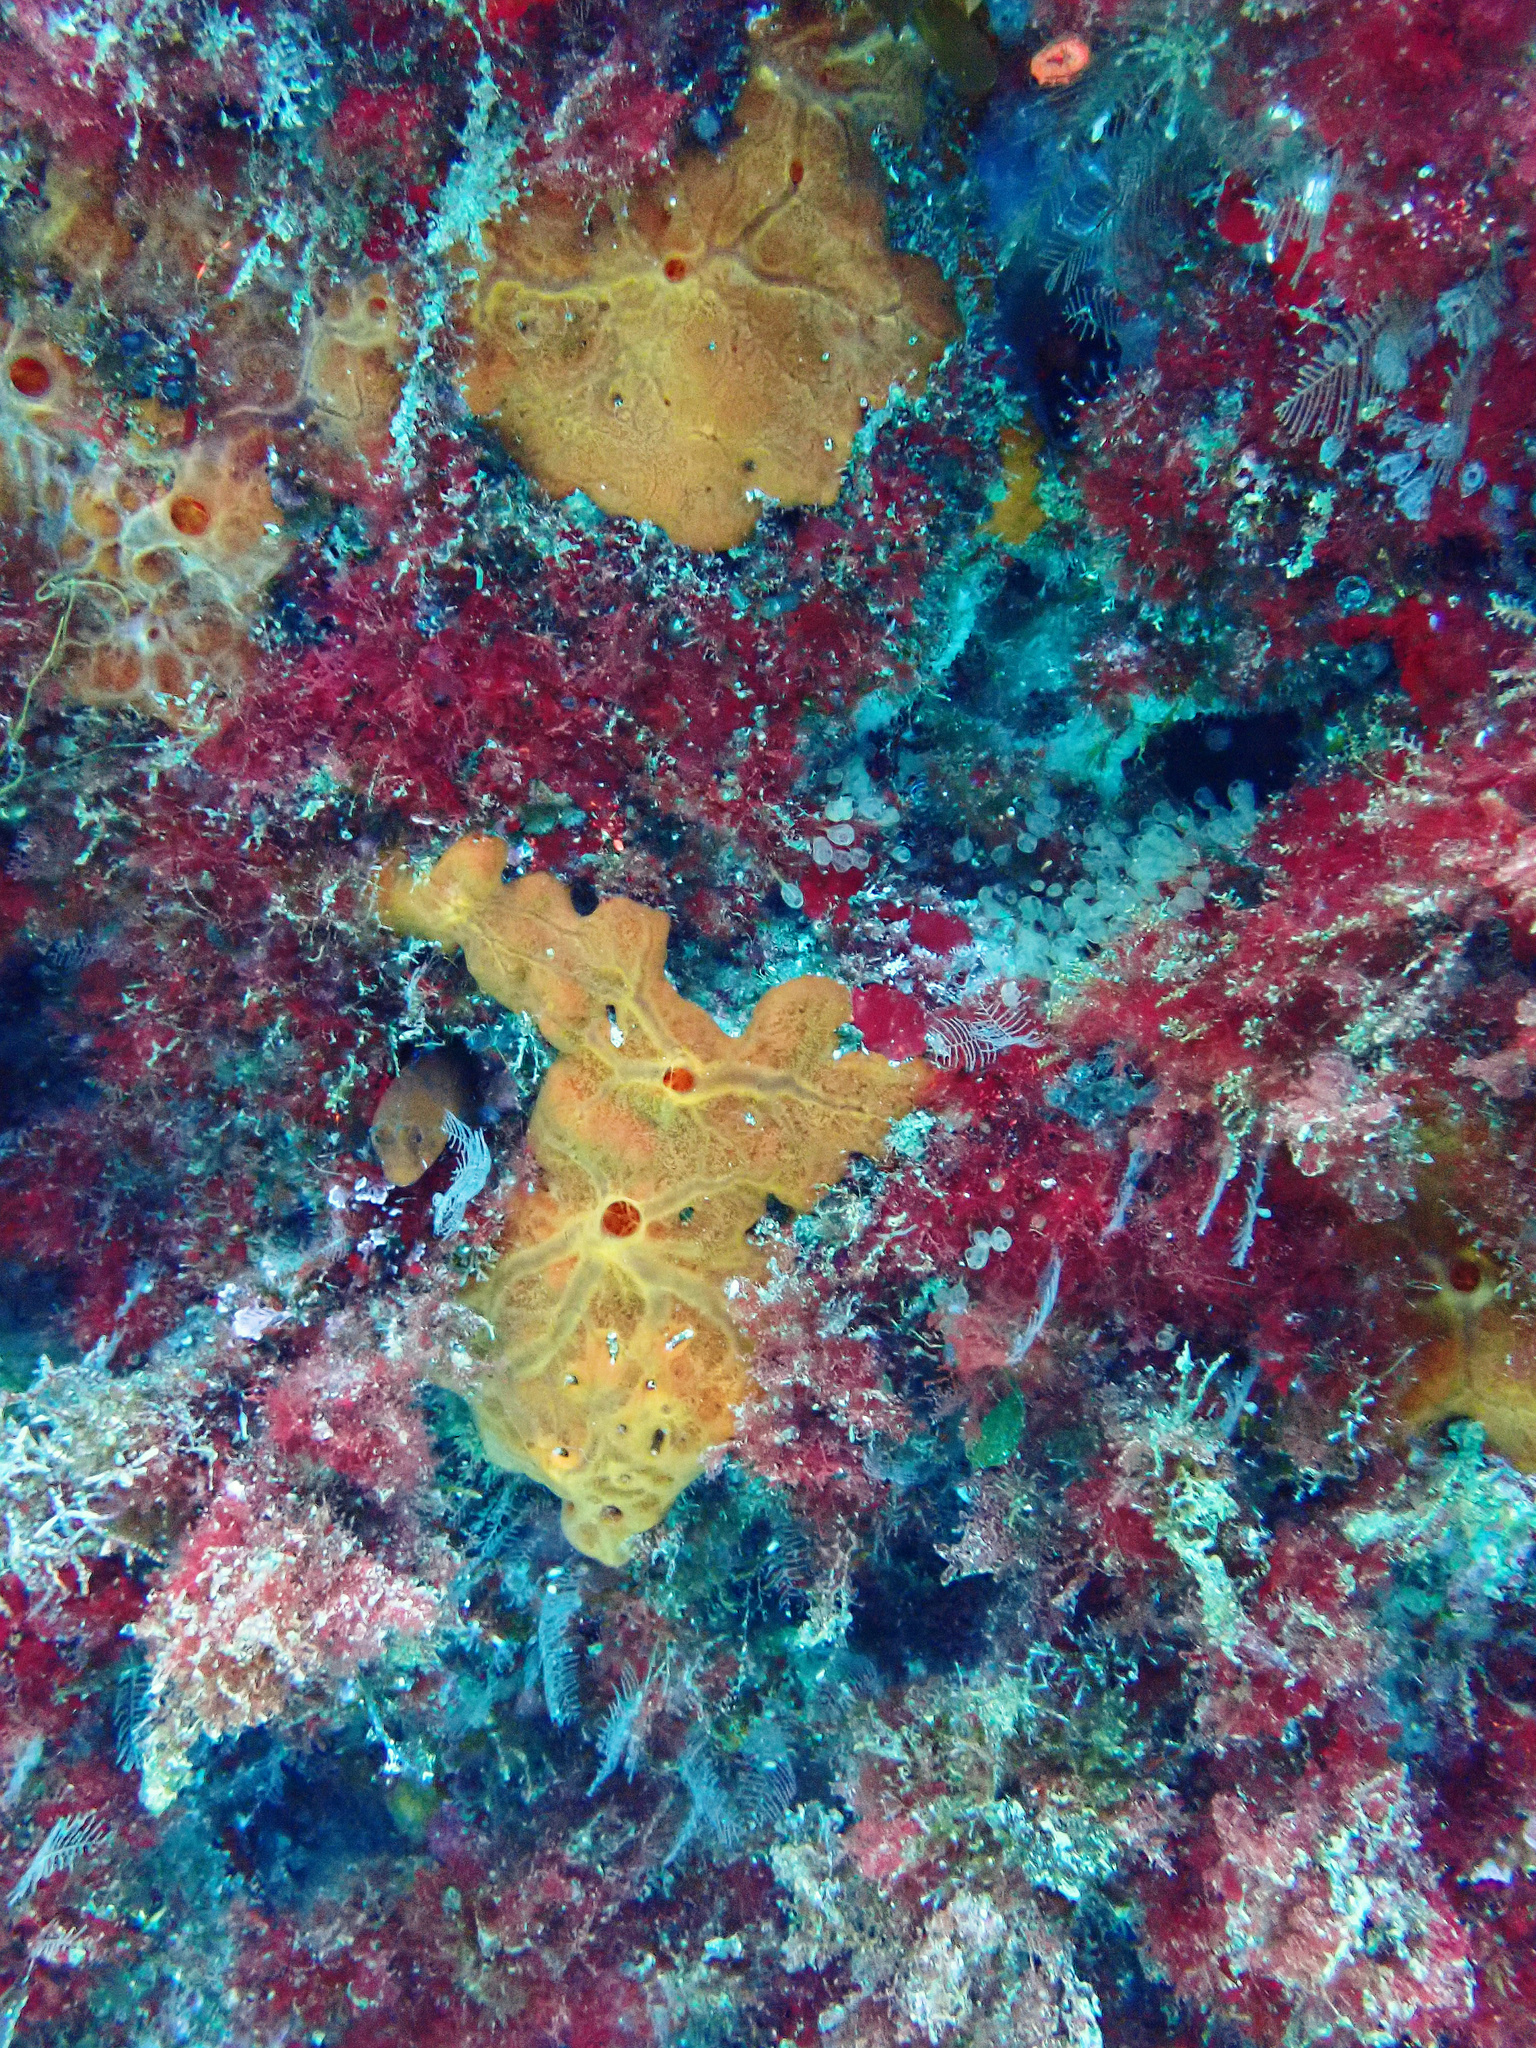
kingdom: Animalia
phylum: Porifera
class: Demospongiae
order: Poecilosclerida
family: Crambeidae
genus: Crambe
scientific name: Crambe crambe
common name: Orange-red encrusting sponge
